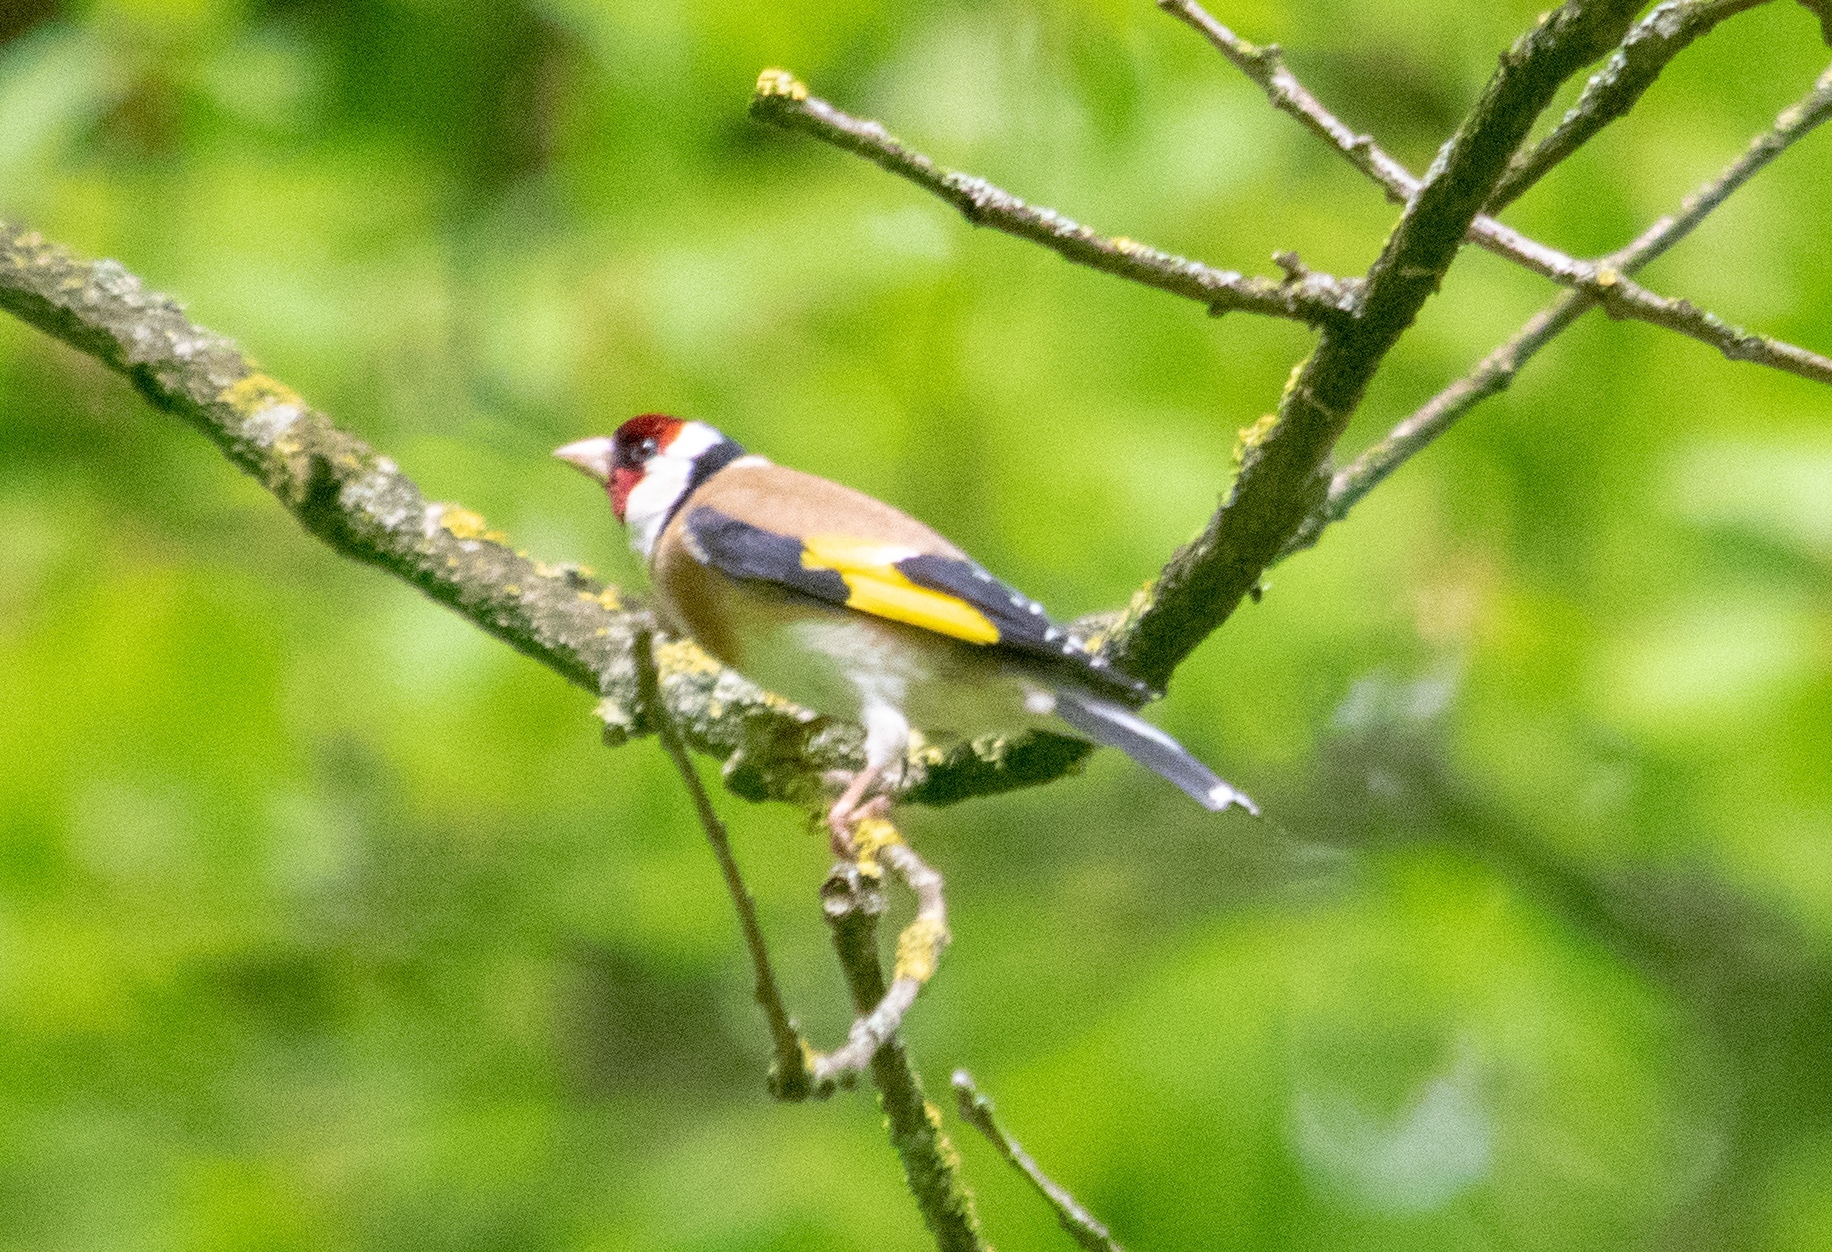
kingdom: Animalia
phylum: Chordata
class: Aves
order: Passeriformes
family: Fringillidae
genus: Carduelis
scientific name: Carduelis carduelis
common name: European goldfinch
